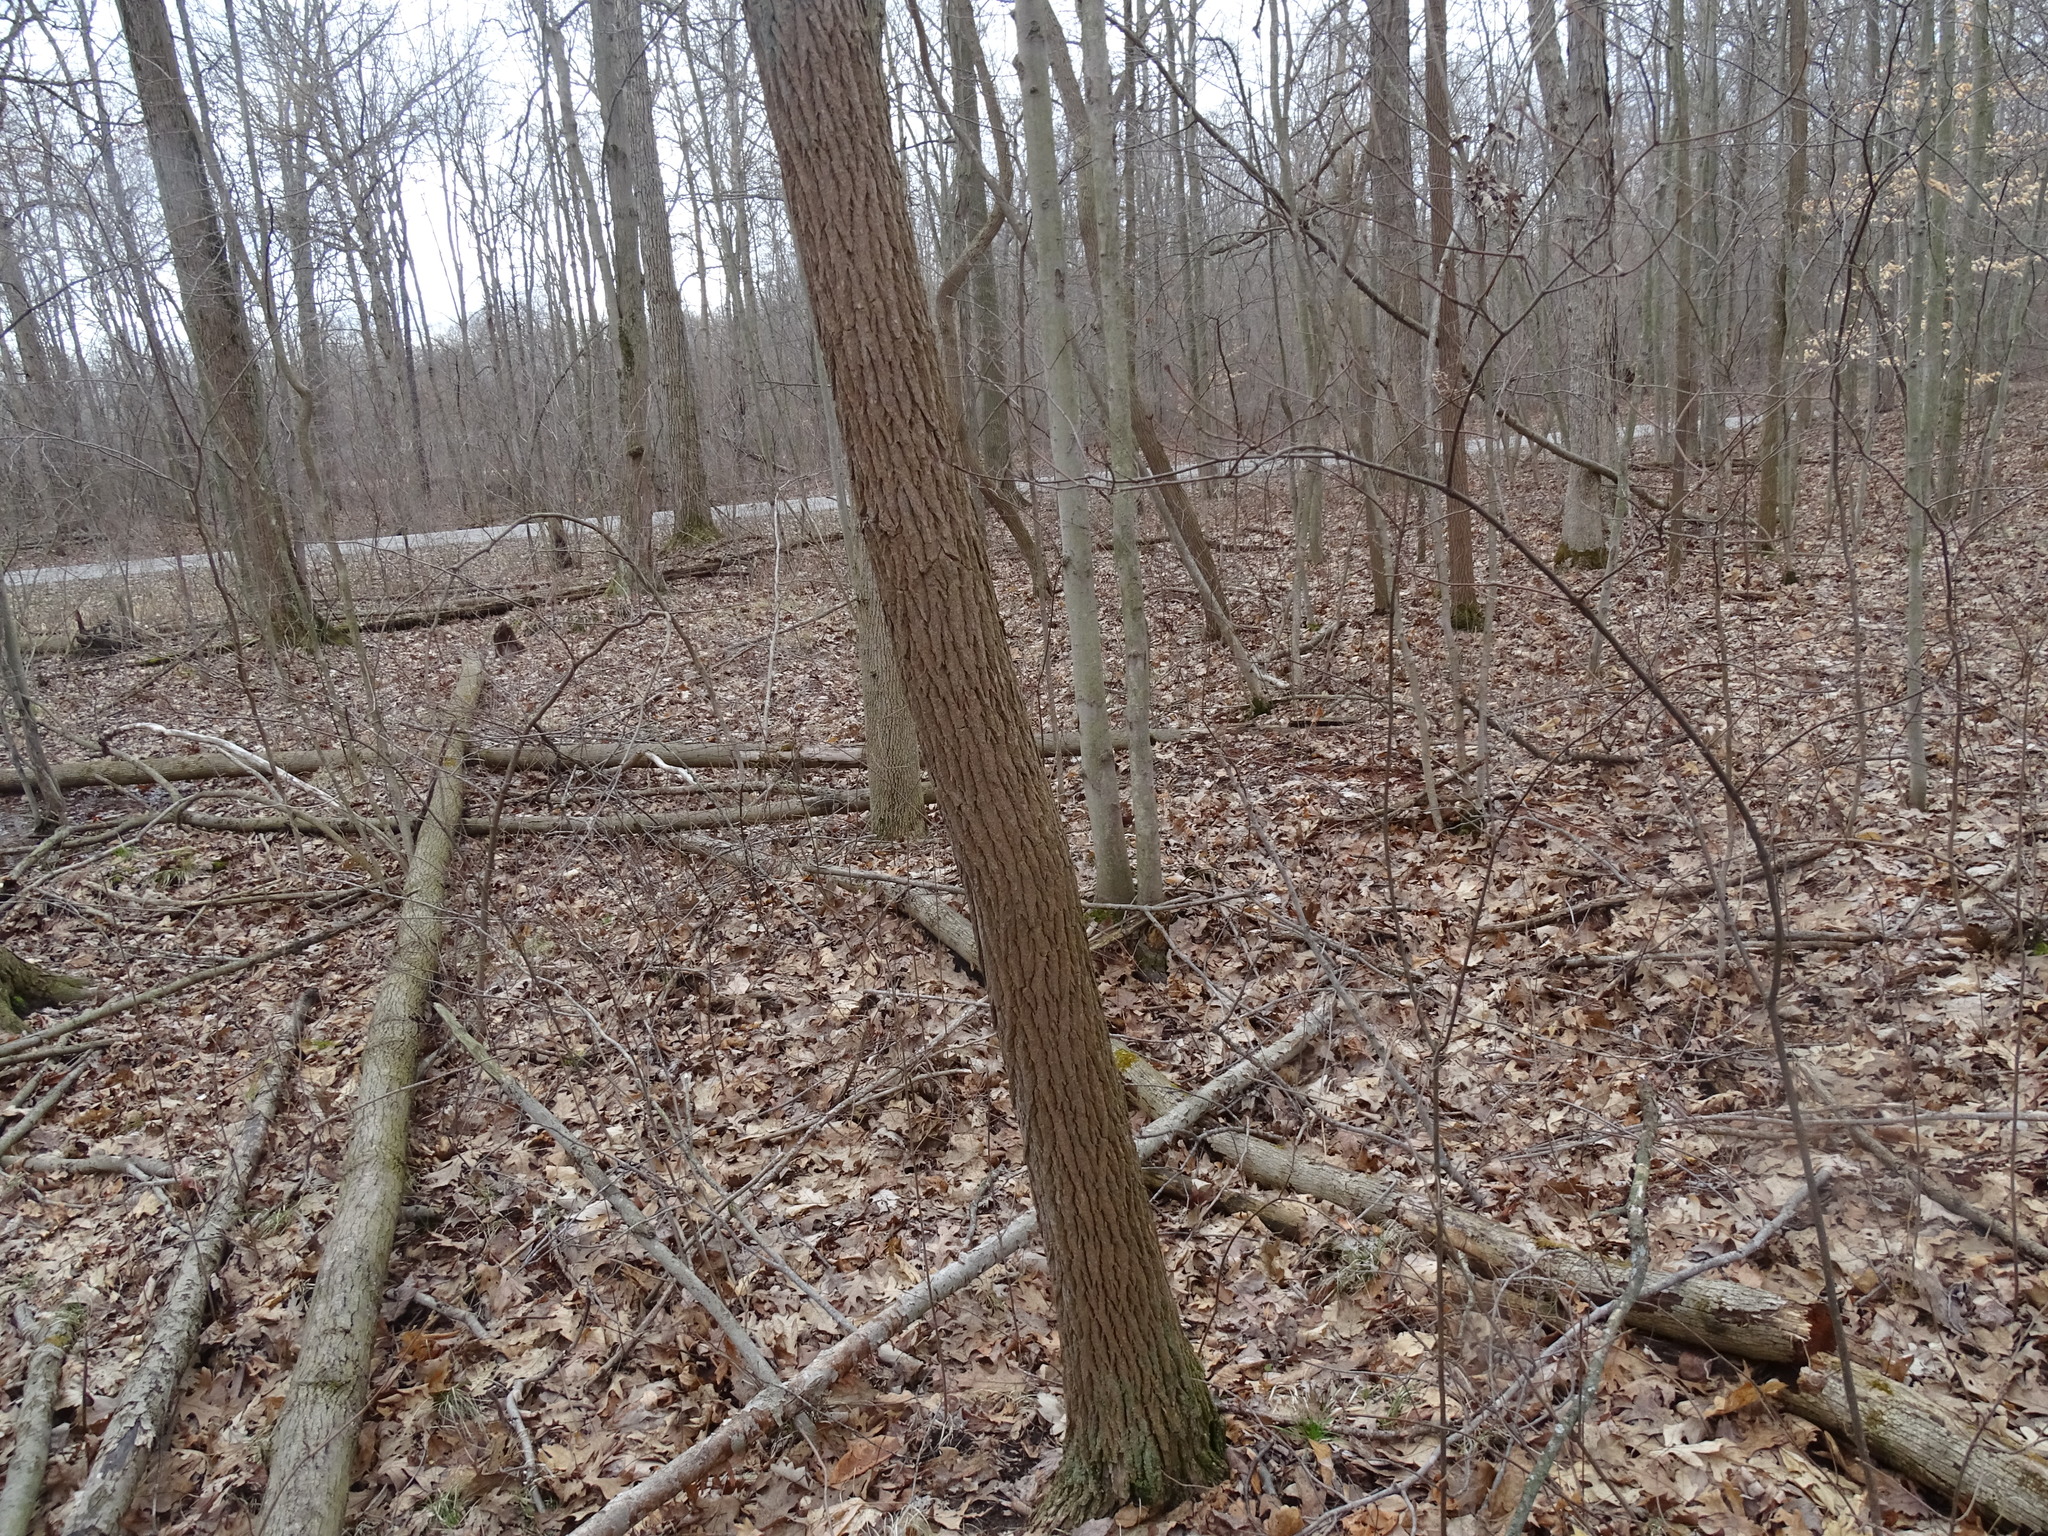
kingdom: Plantae
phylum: Tracheophyta
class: Magnoliopsida
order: Laurales
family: Lauraceae
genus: Sassafras
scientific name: Sassafras albidum
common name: Sassafras
